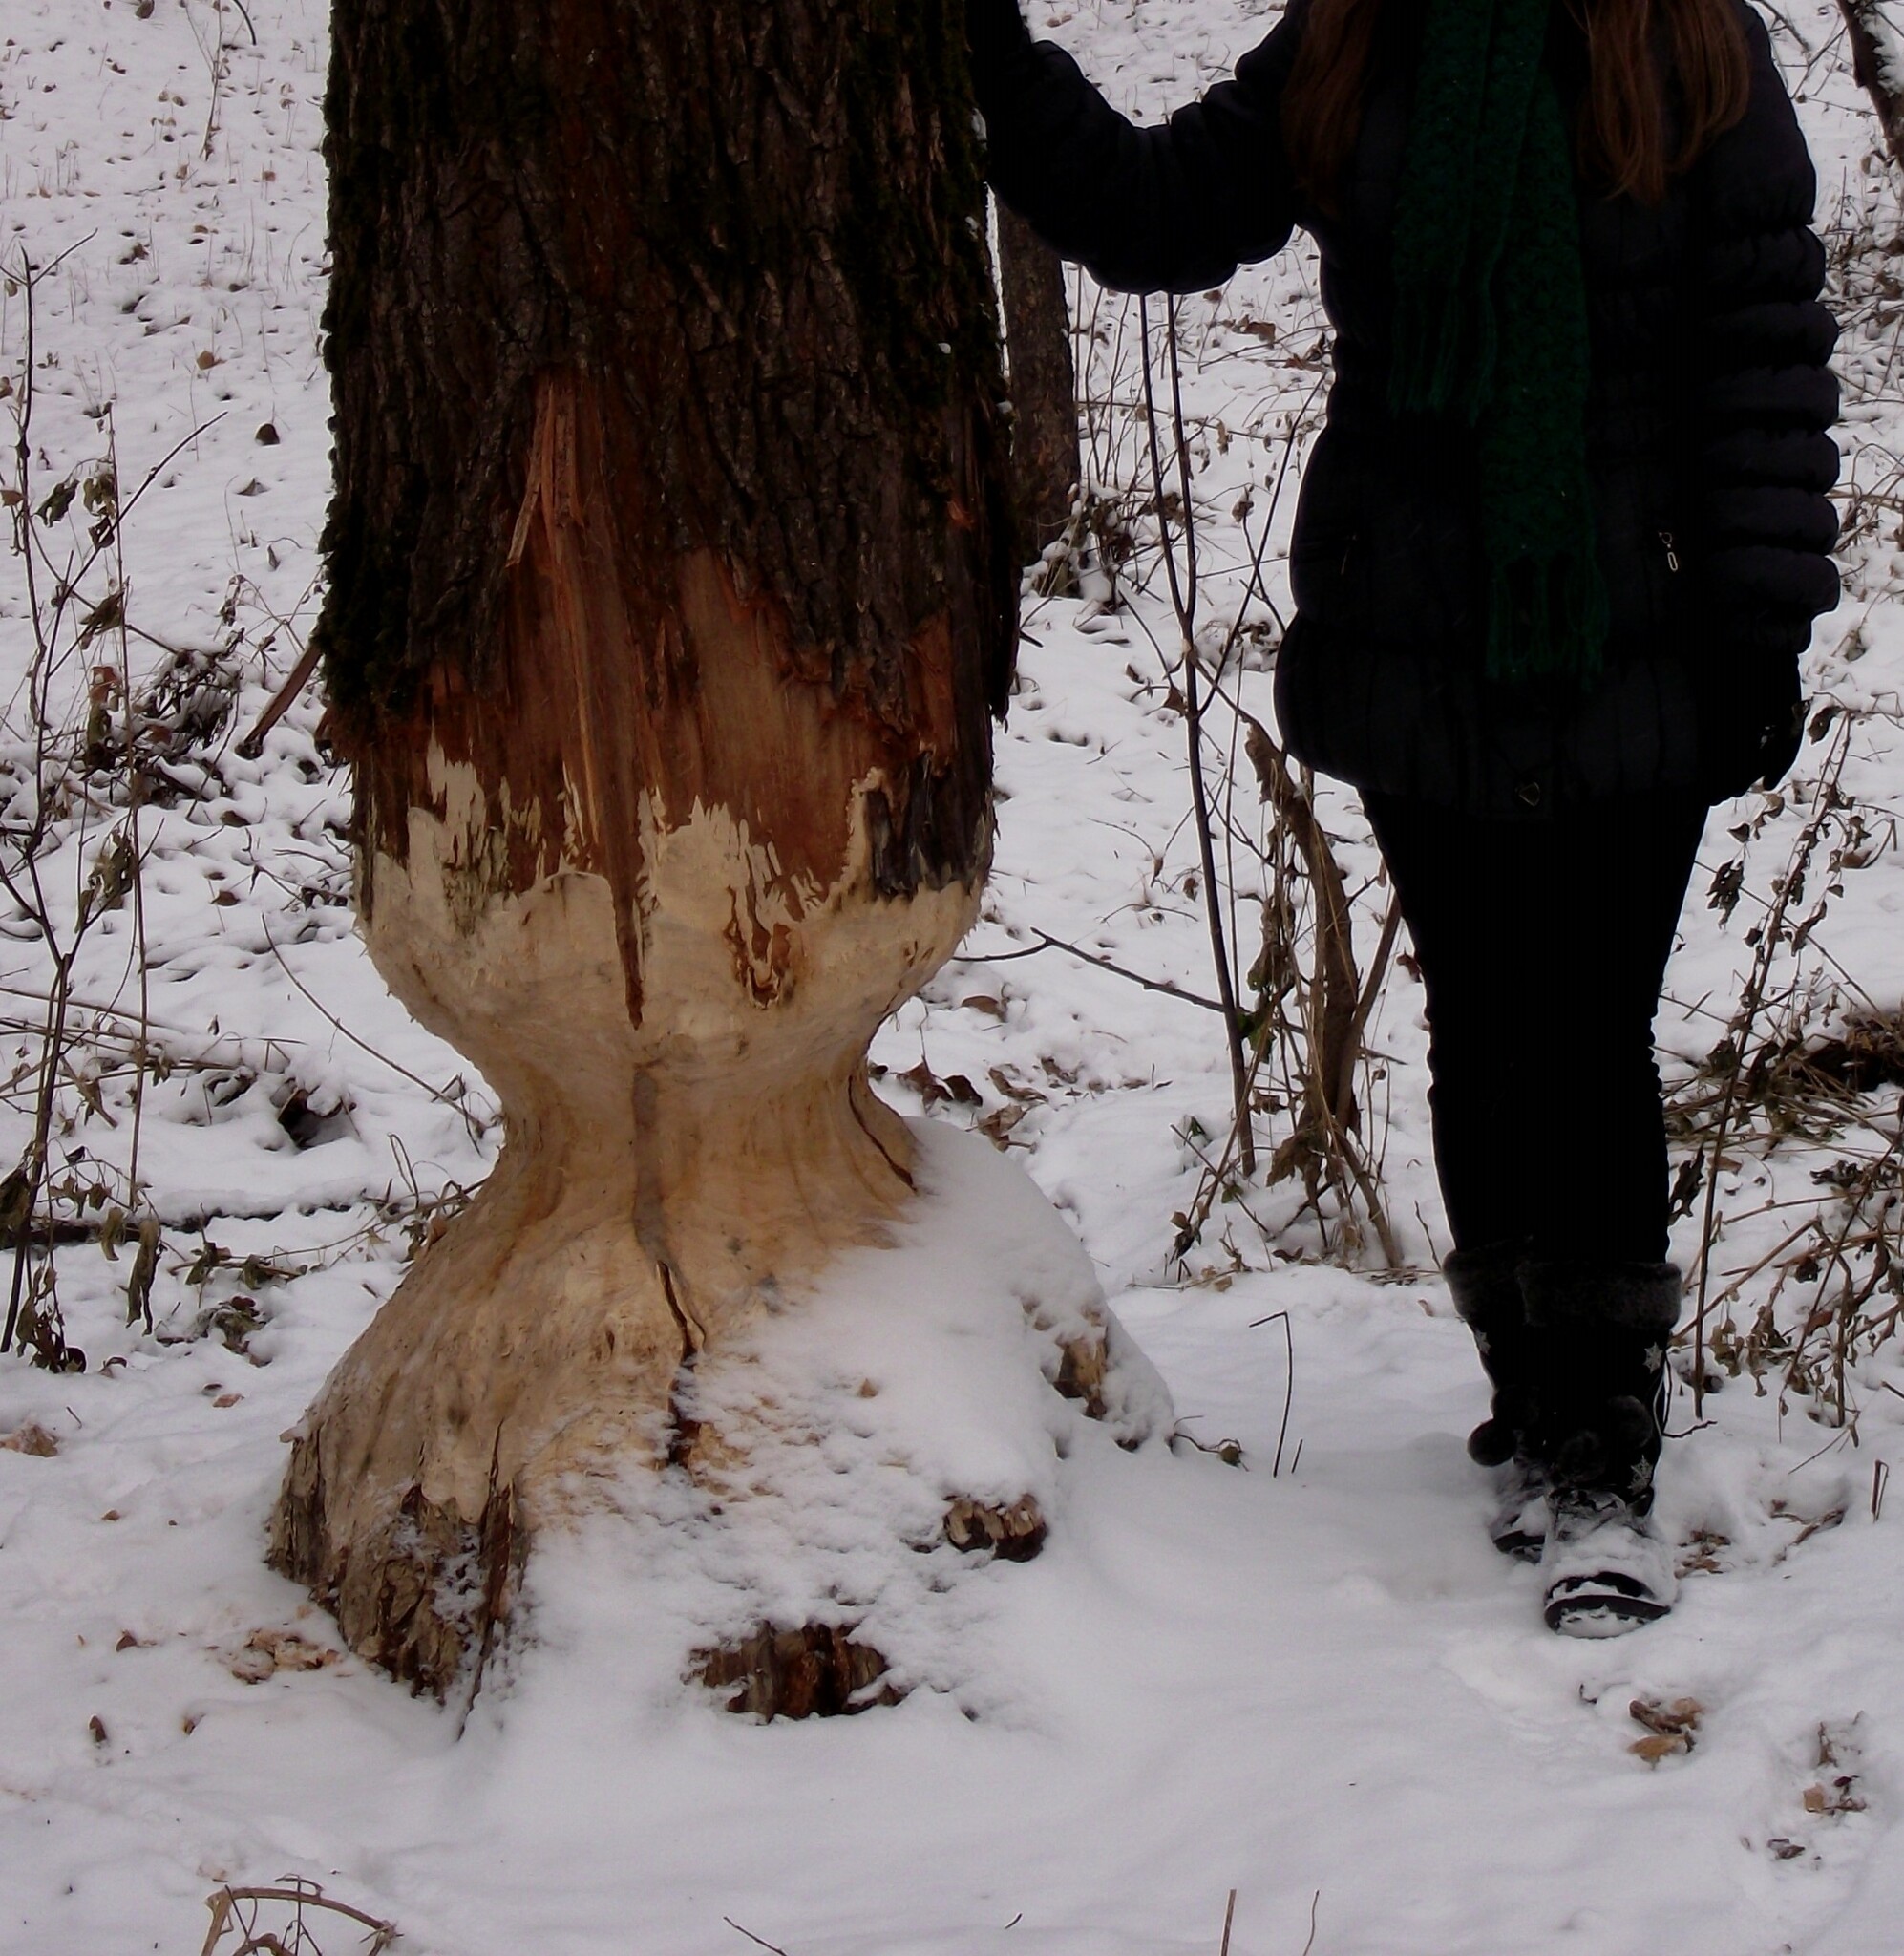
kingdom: Animalia
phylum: Chordata
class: Mammalia
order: Rodentia
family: Castoridae
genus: Castor
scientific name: Castor fiber
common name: Eurasian beaver
